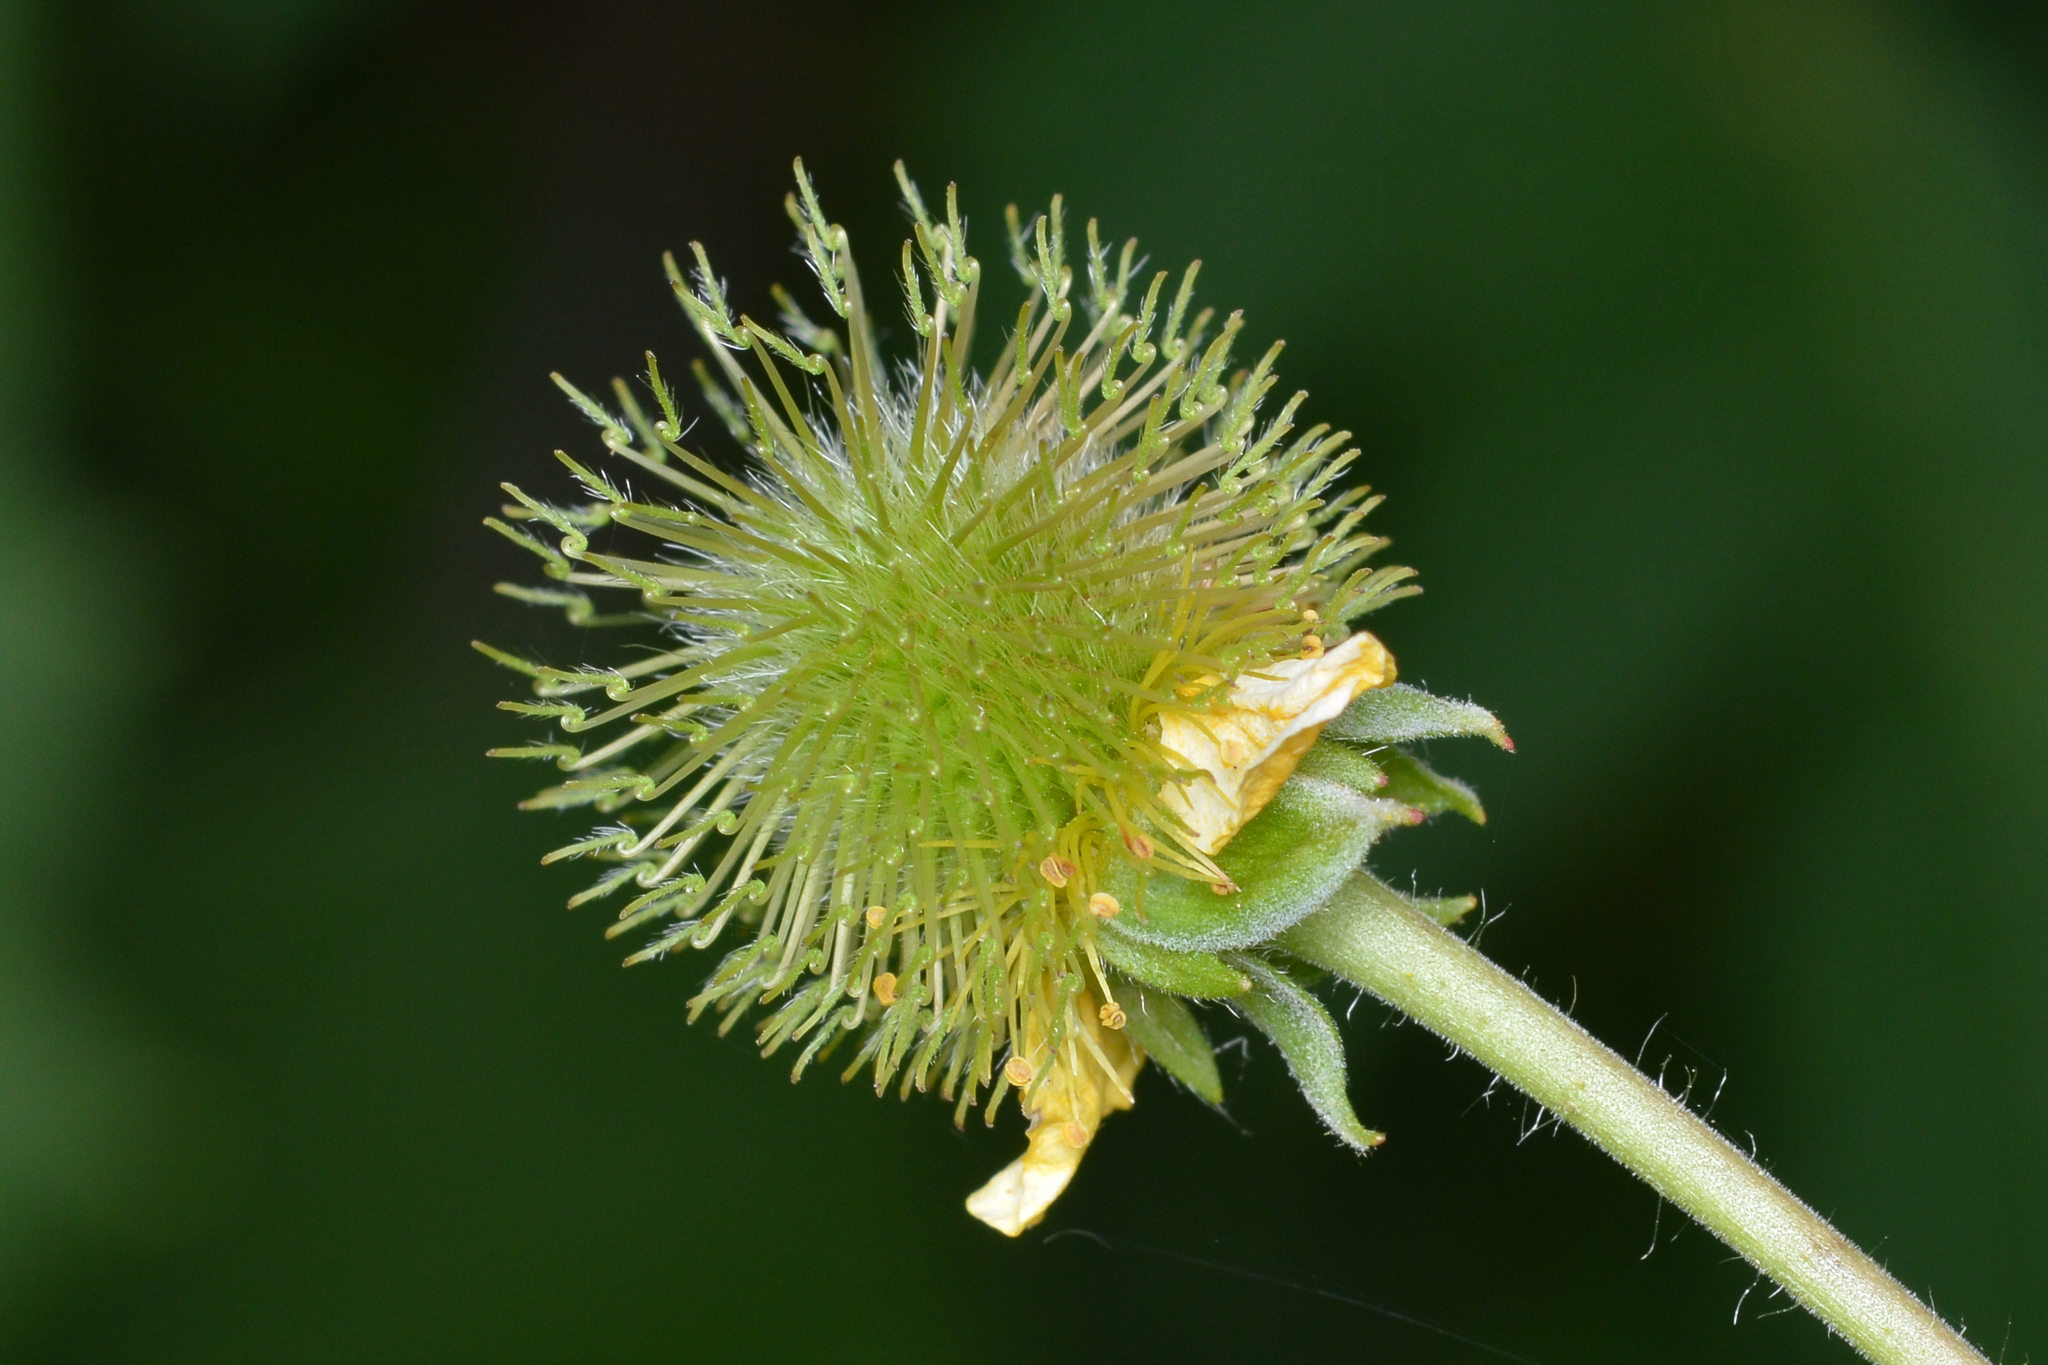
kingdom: Plantae
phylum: Tracheophyta
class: Magnoliopsida
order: Rosales
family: Rosaceae
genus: Geum
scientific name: Geum aleppicum
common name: Yellow avens
